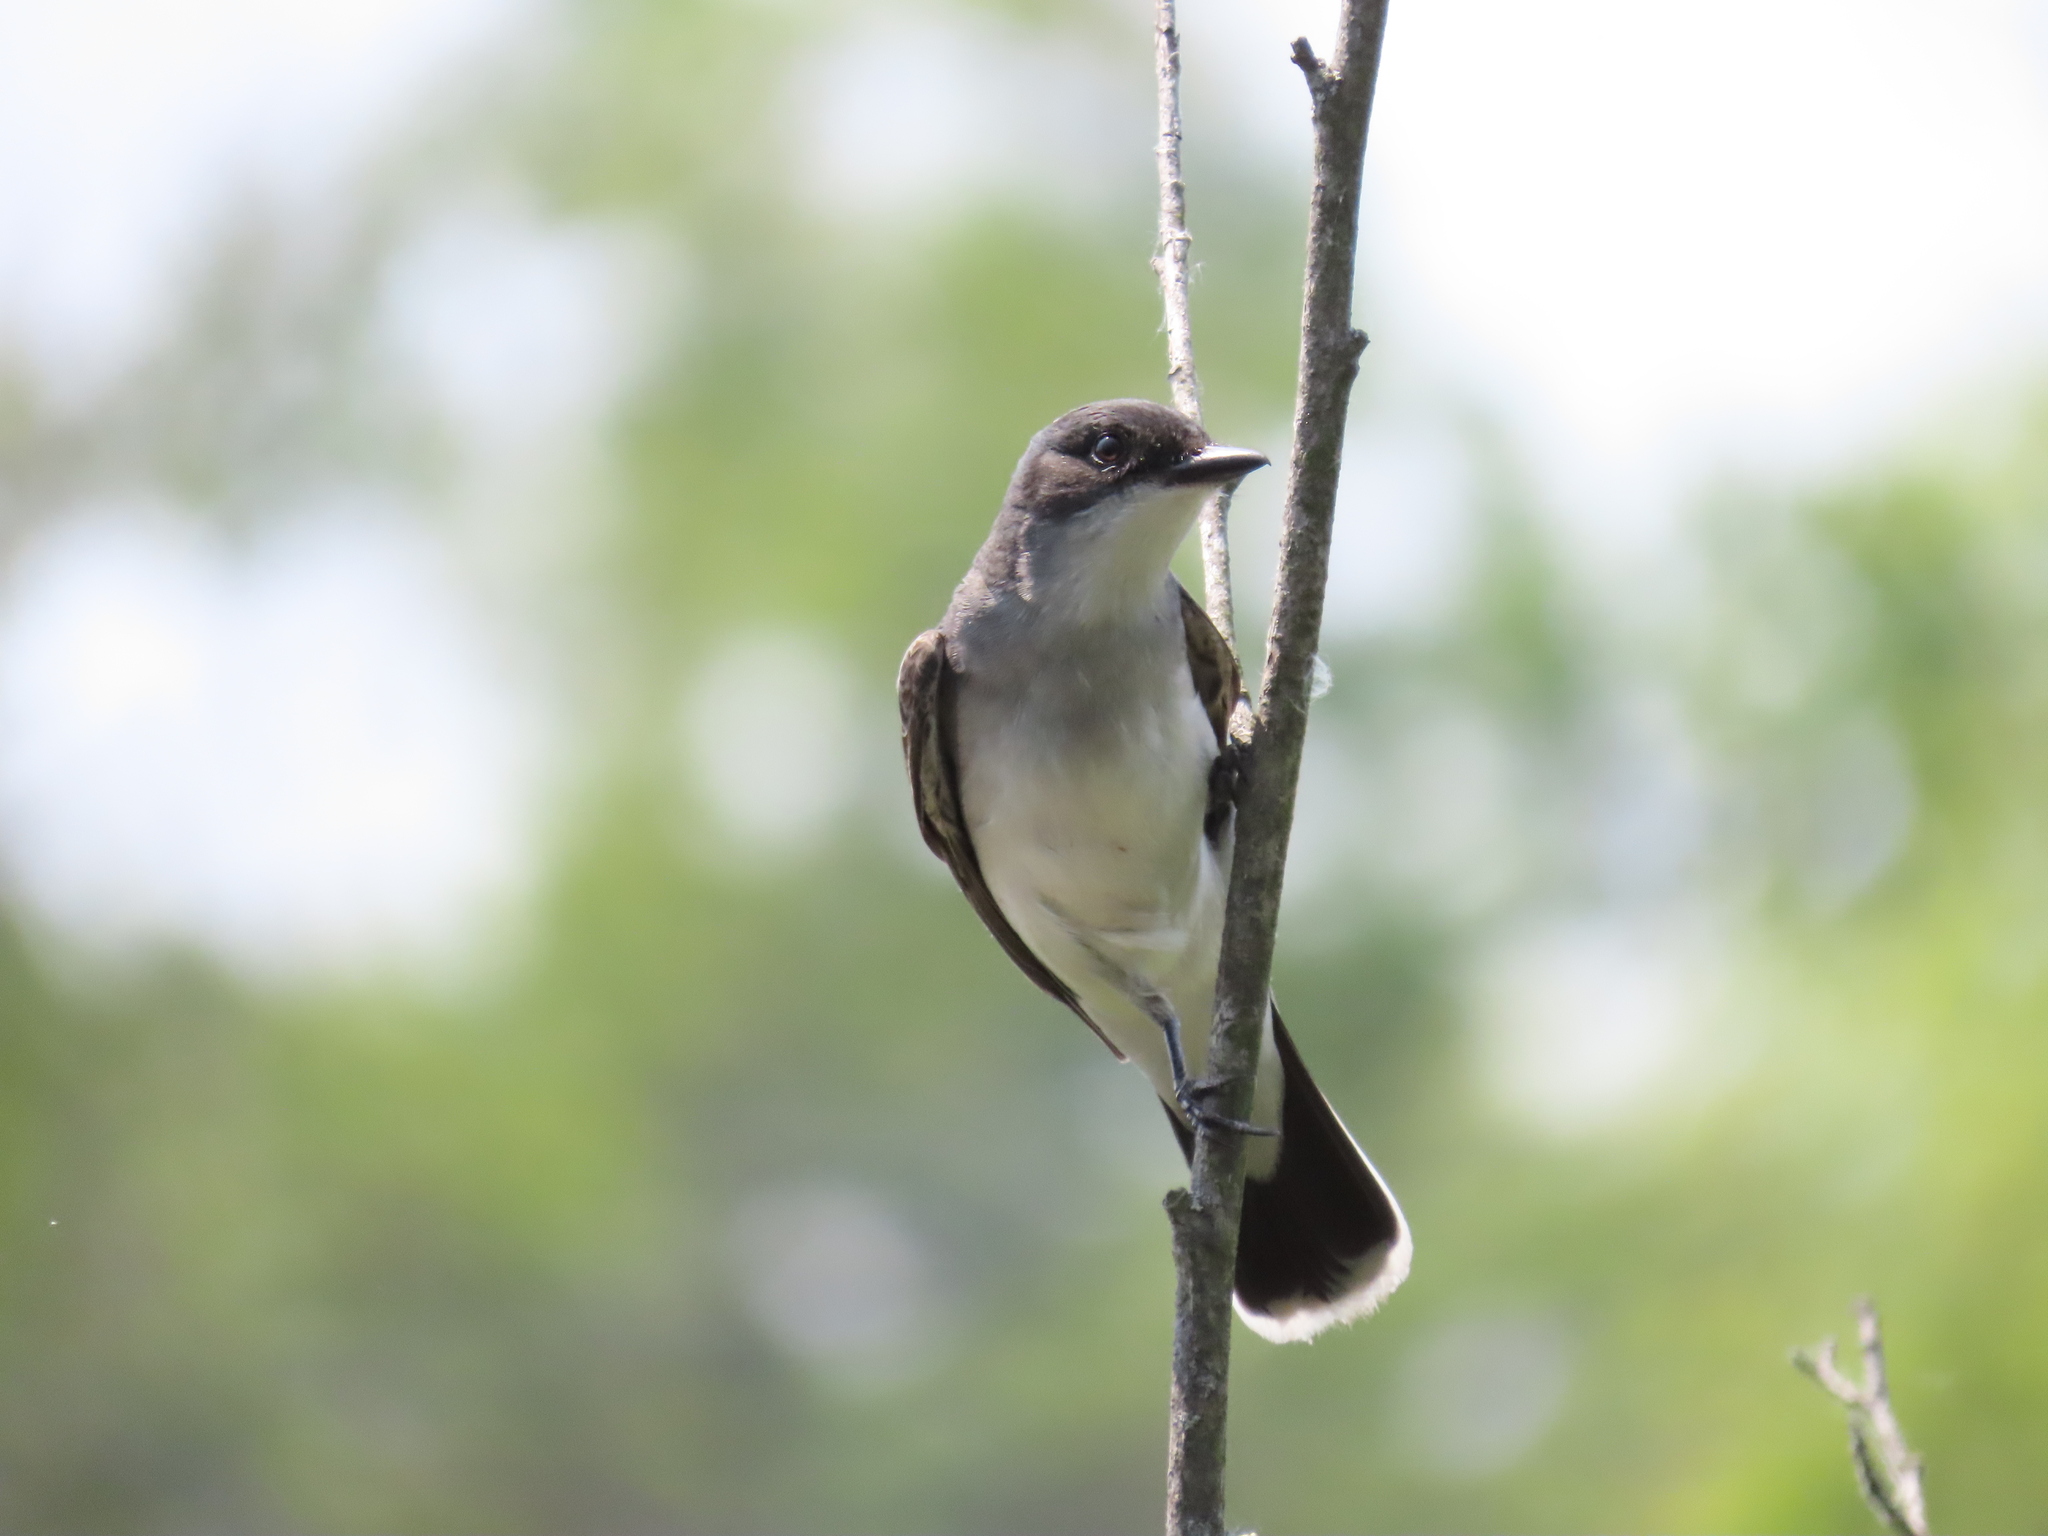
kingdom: Animalia
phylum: Chordata
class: Aves
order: Passeriformes
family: Tyrannidae
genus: Tyrannus
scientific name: Tyrannus tyrannus
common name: Eastern kingbird
